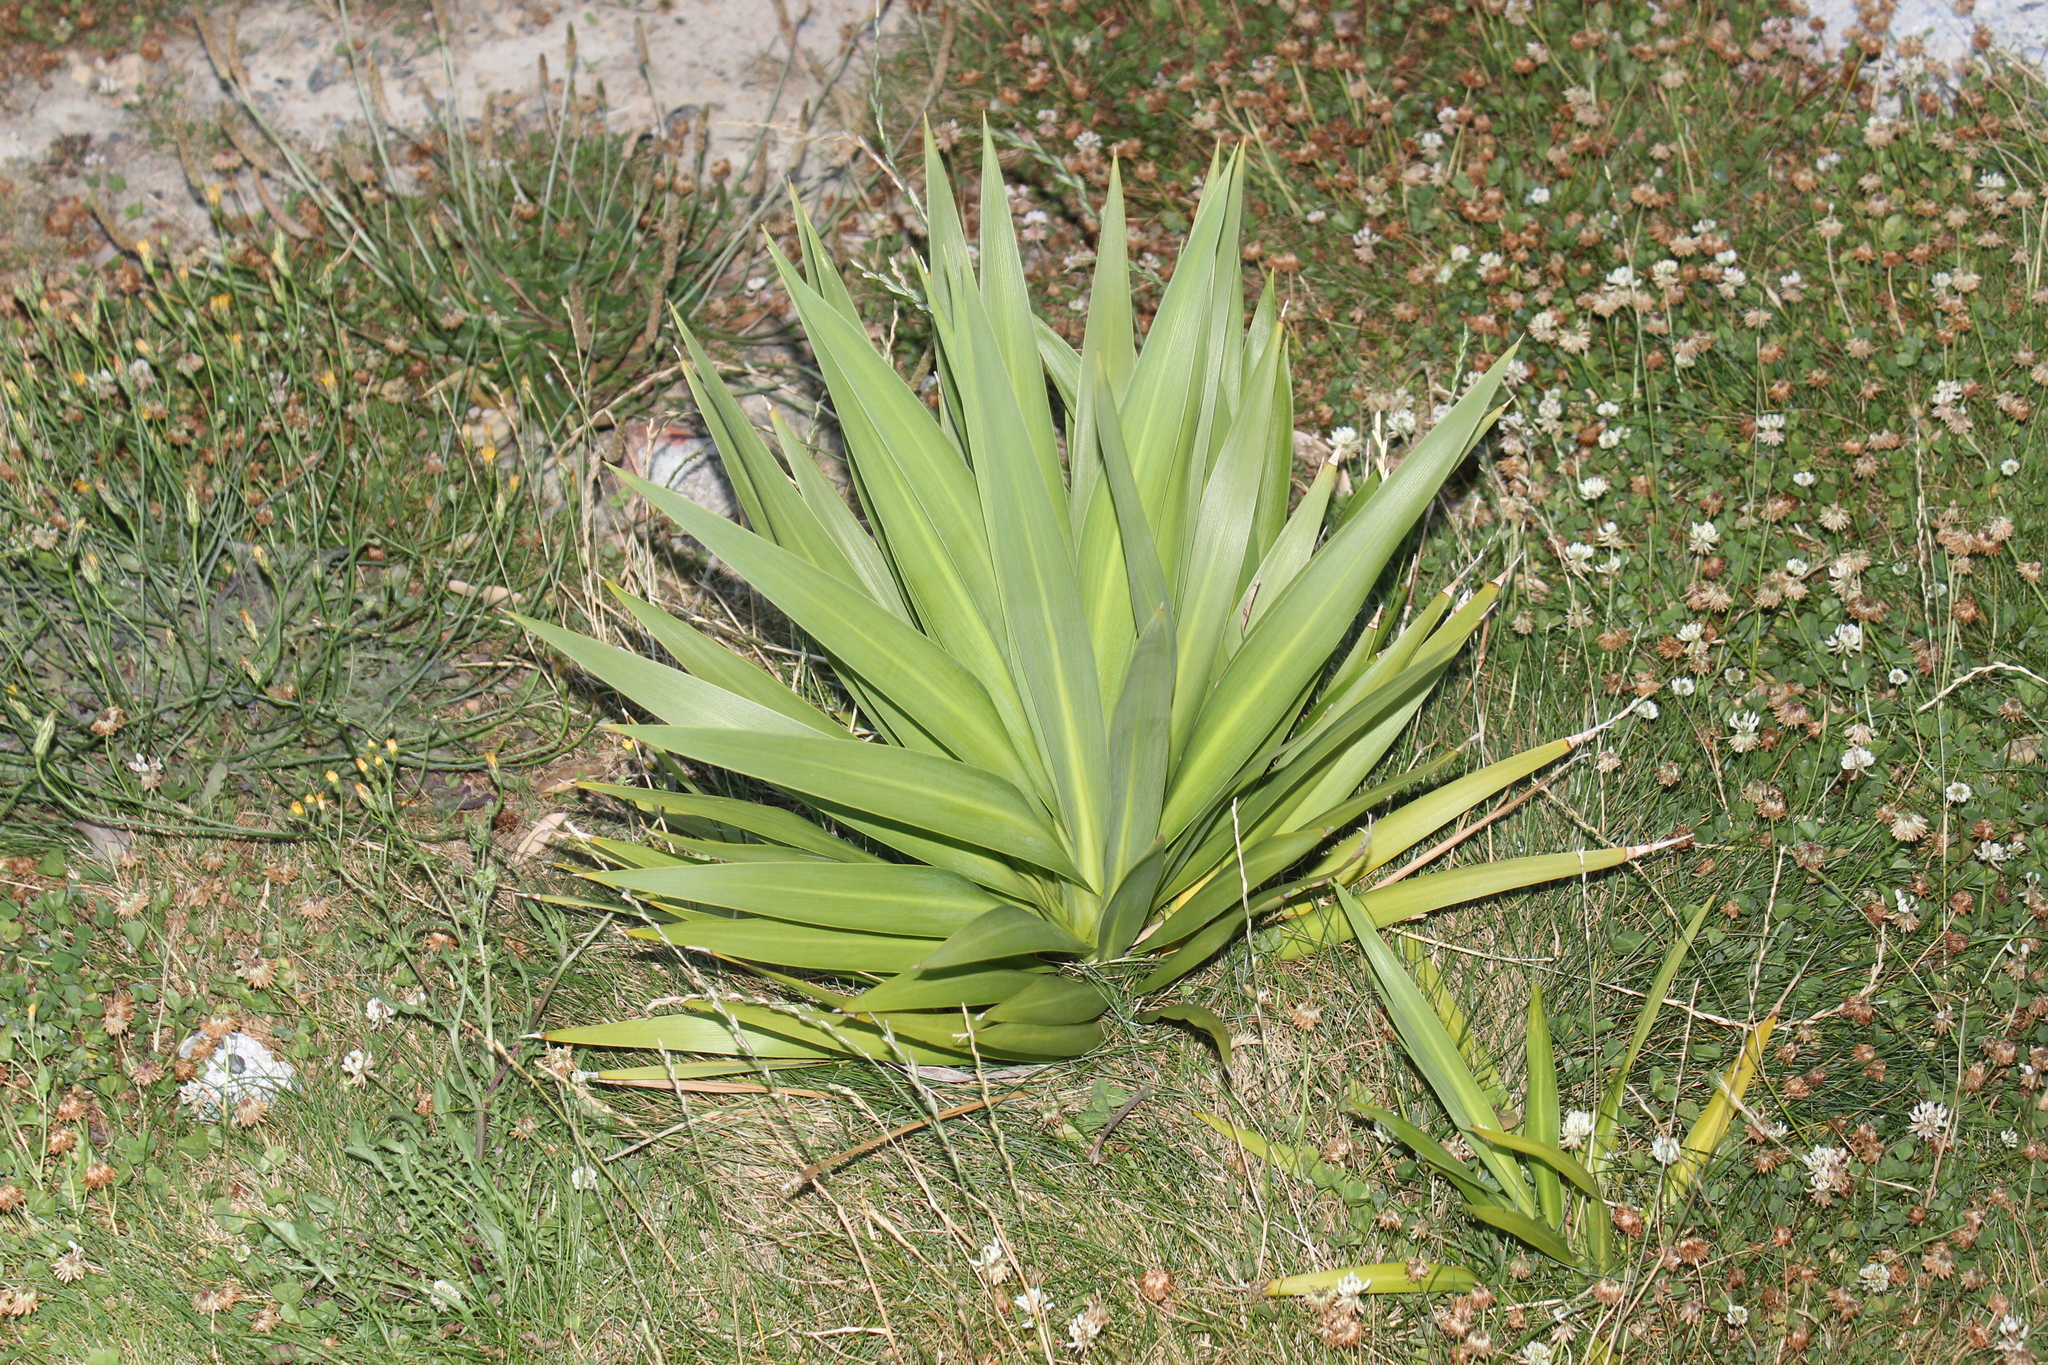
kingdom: Plantae
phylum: Tracheophyta
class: Liliopsida
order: Asparagales
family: Asparagaceae
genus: Yucca
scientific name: Yucca gloriosa
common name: Spanish-dagger
